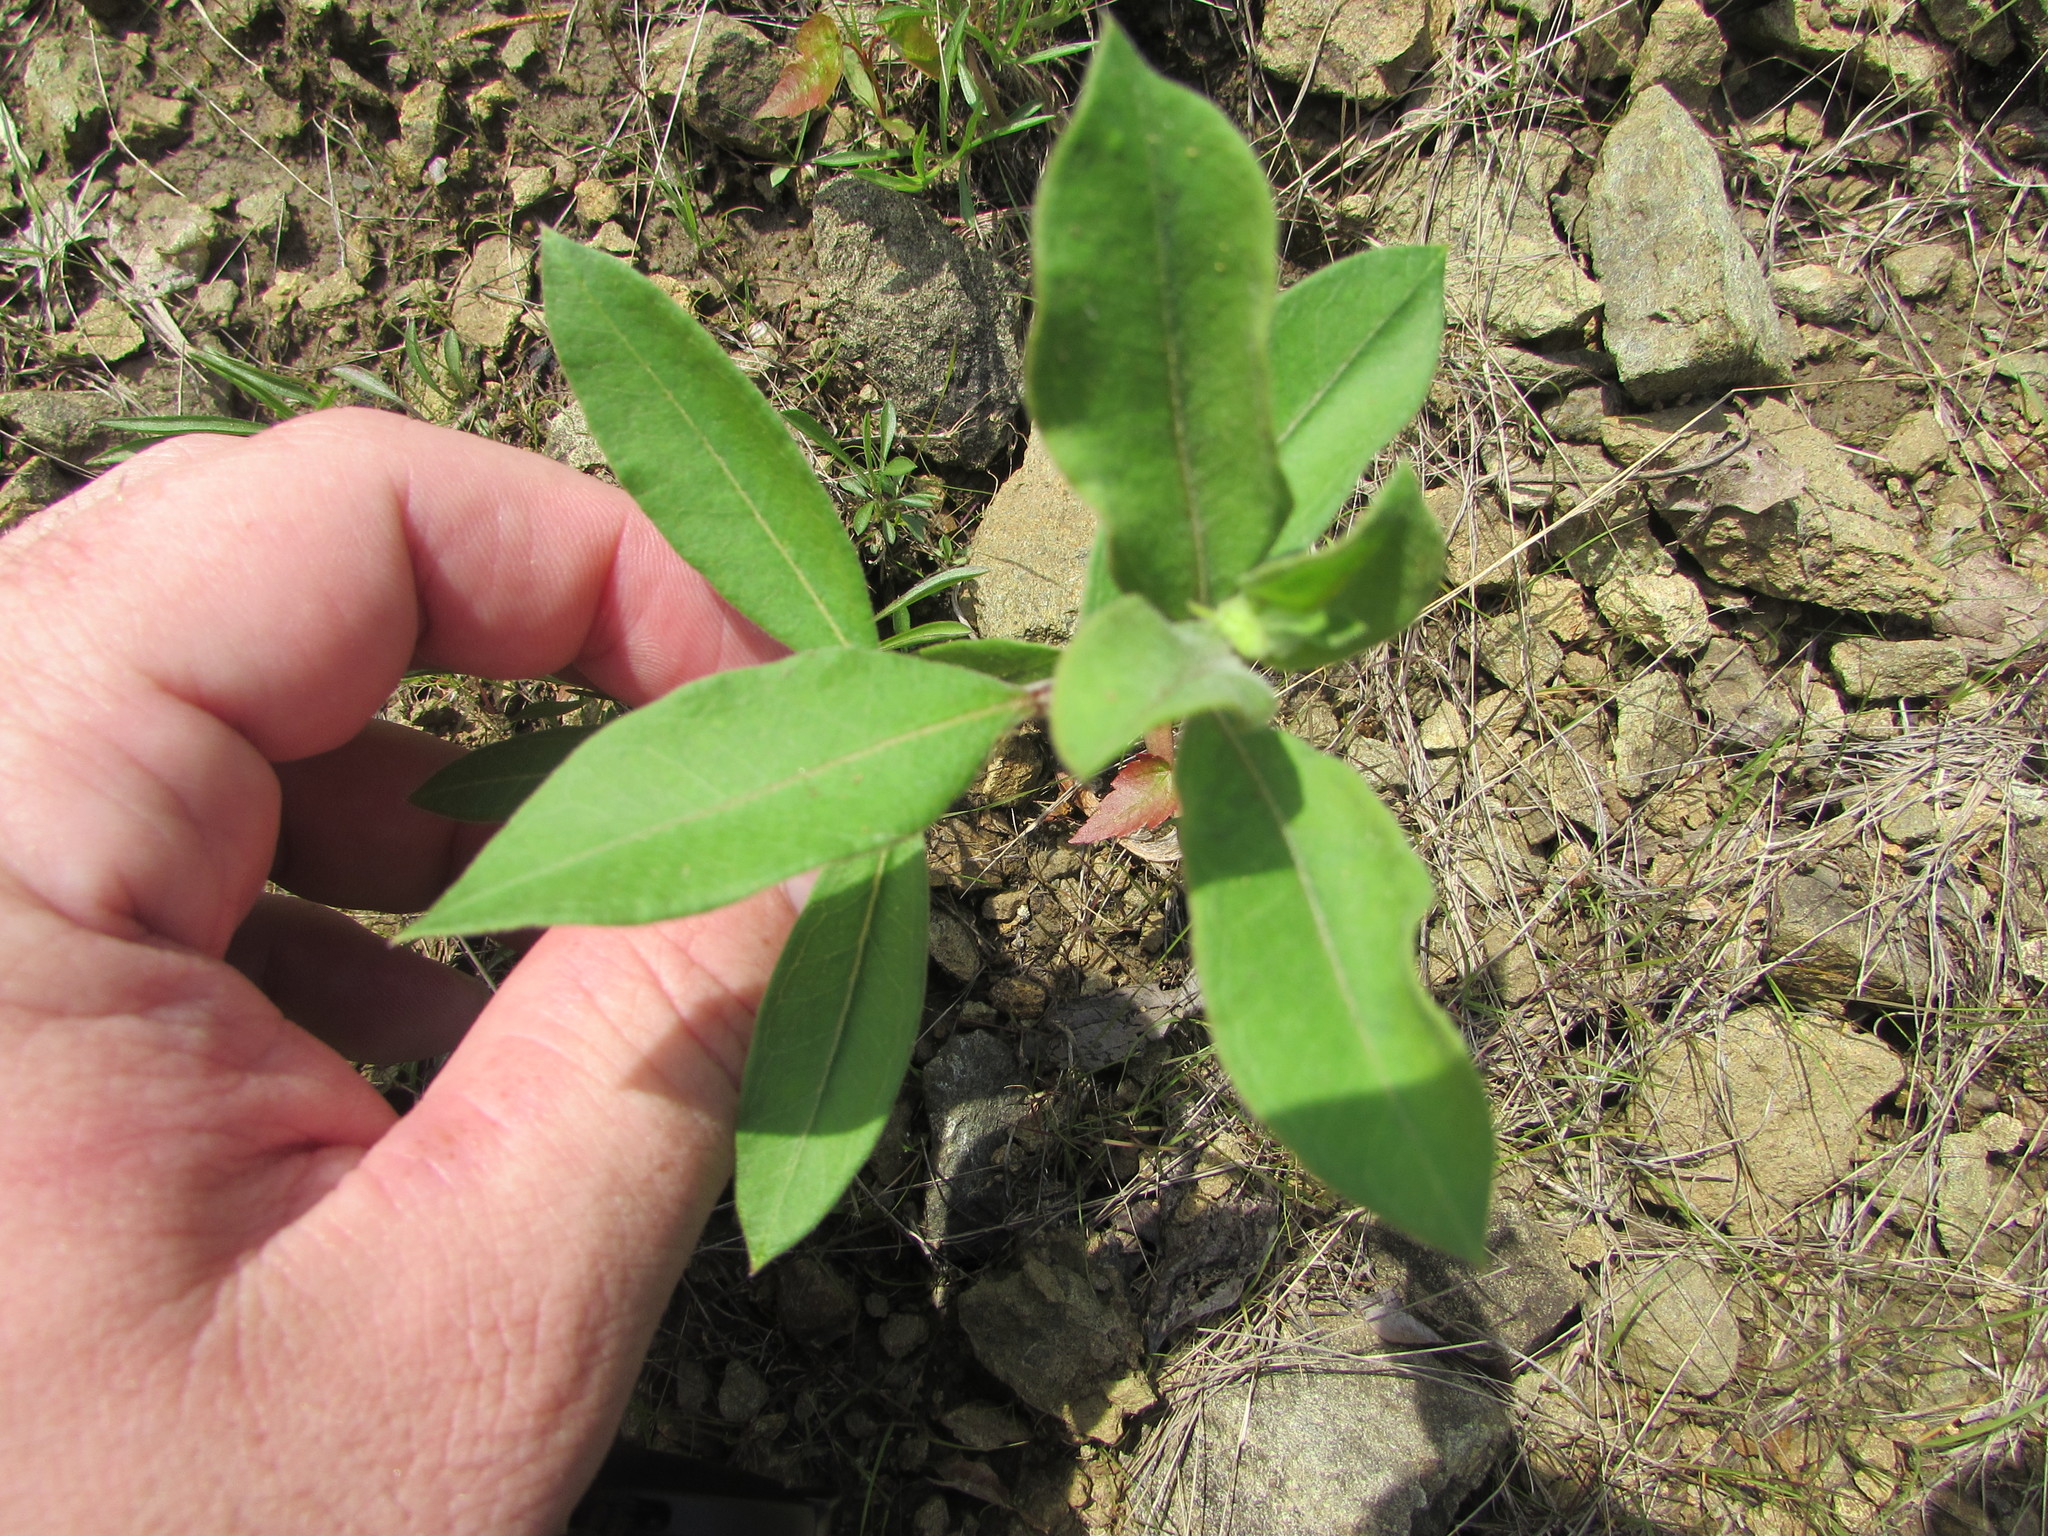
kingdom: Plantae
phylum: Tracheophyta
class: Magnoliopsida
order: Gentianales
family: Apocynaceae
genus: Asclepias
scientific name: Asclepias viridiflora
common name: Green comet milkweed
